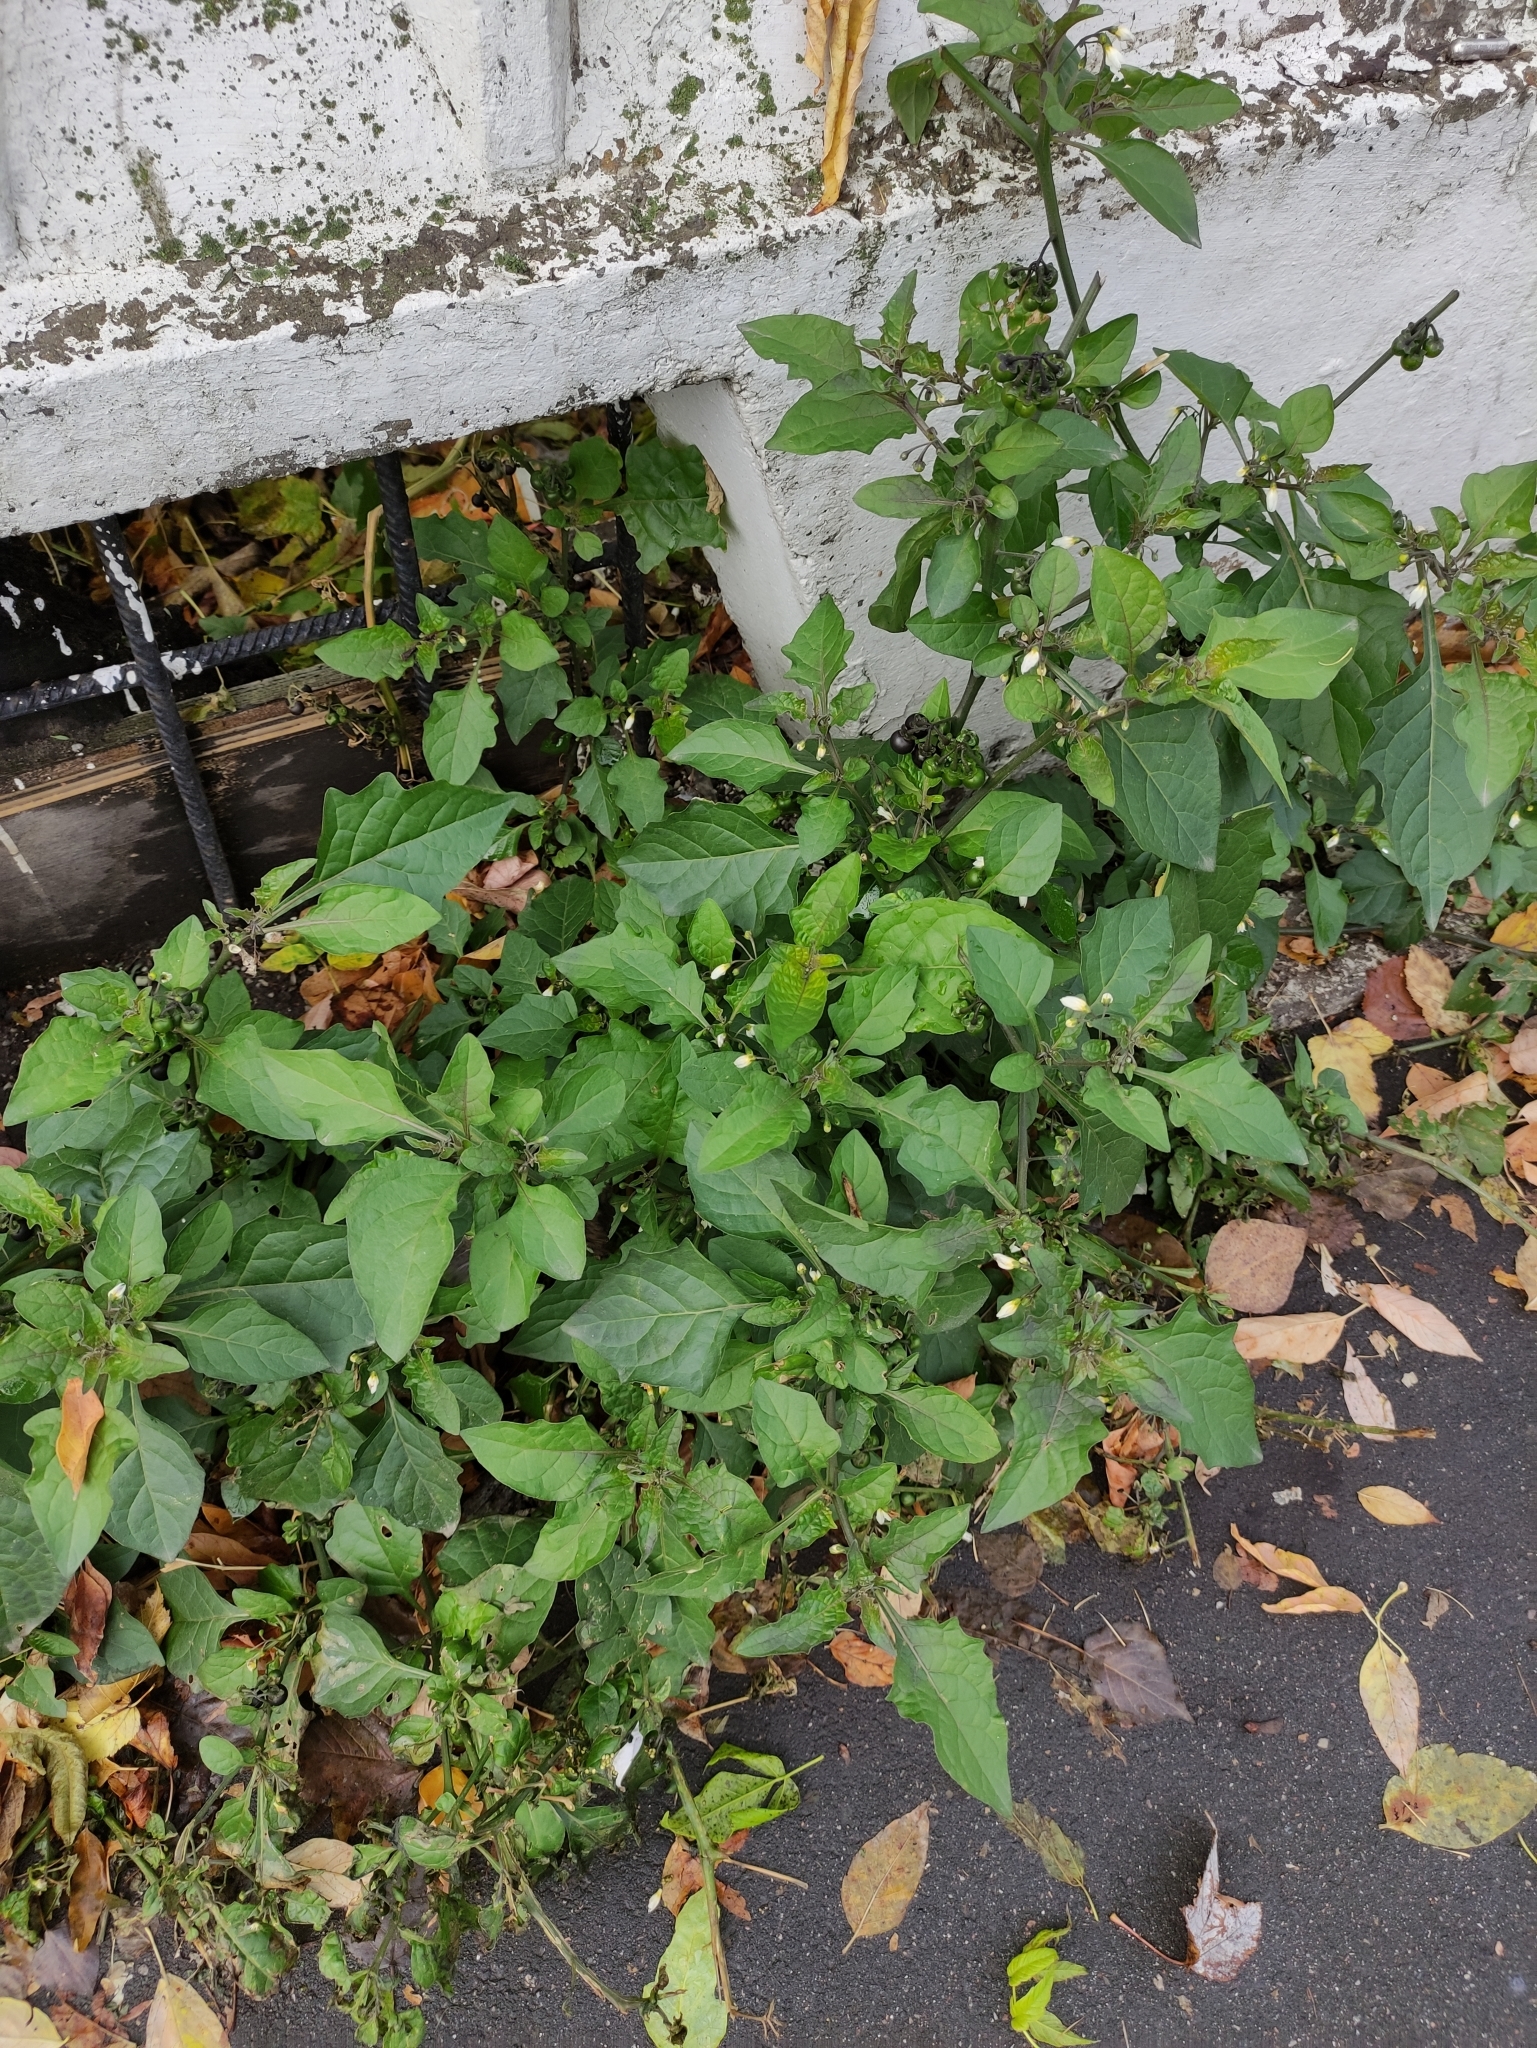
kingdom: Plantae
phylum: Tracheophyta
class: Magnoliopsida
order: Solanales
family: Solanaceae
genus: Solanum
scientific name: Solanum nigrum
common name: Black nightshade
